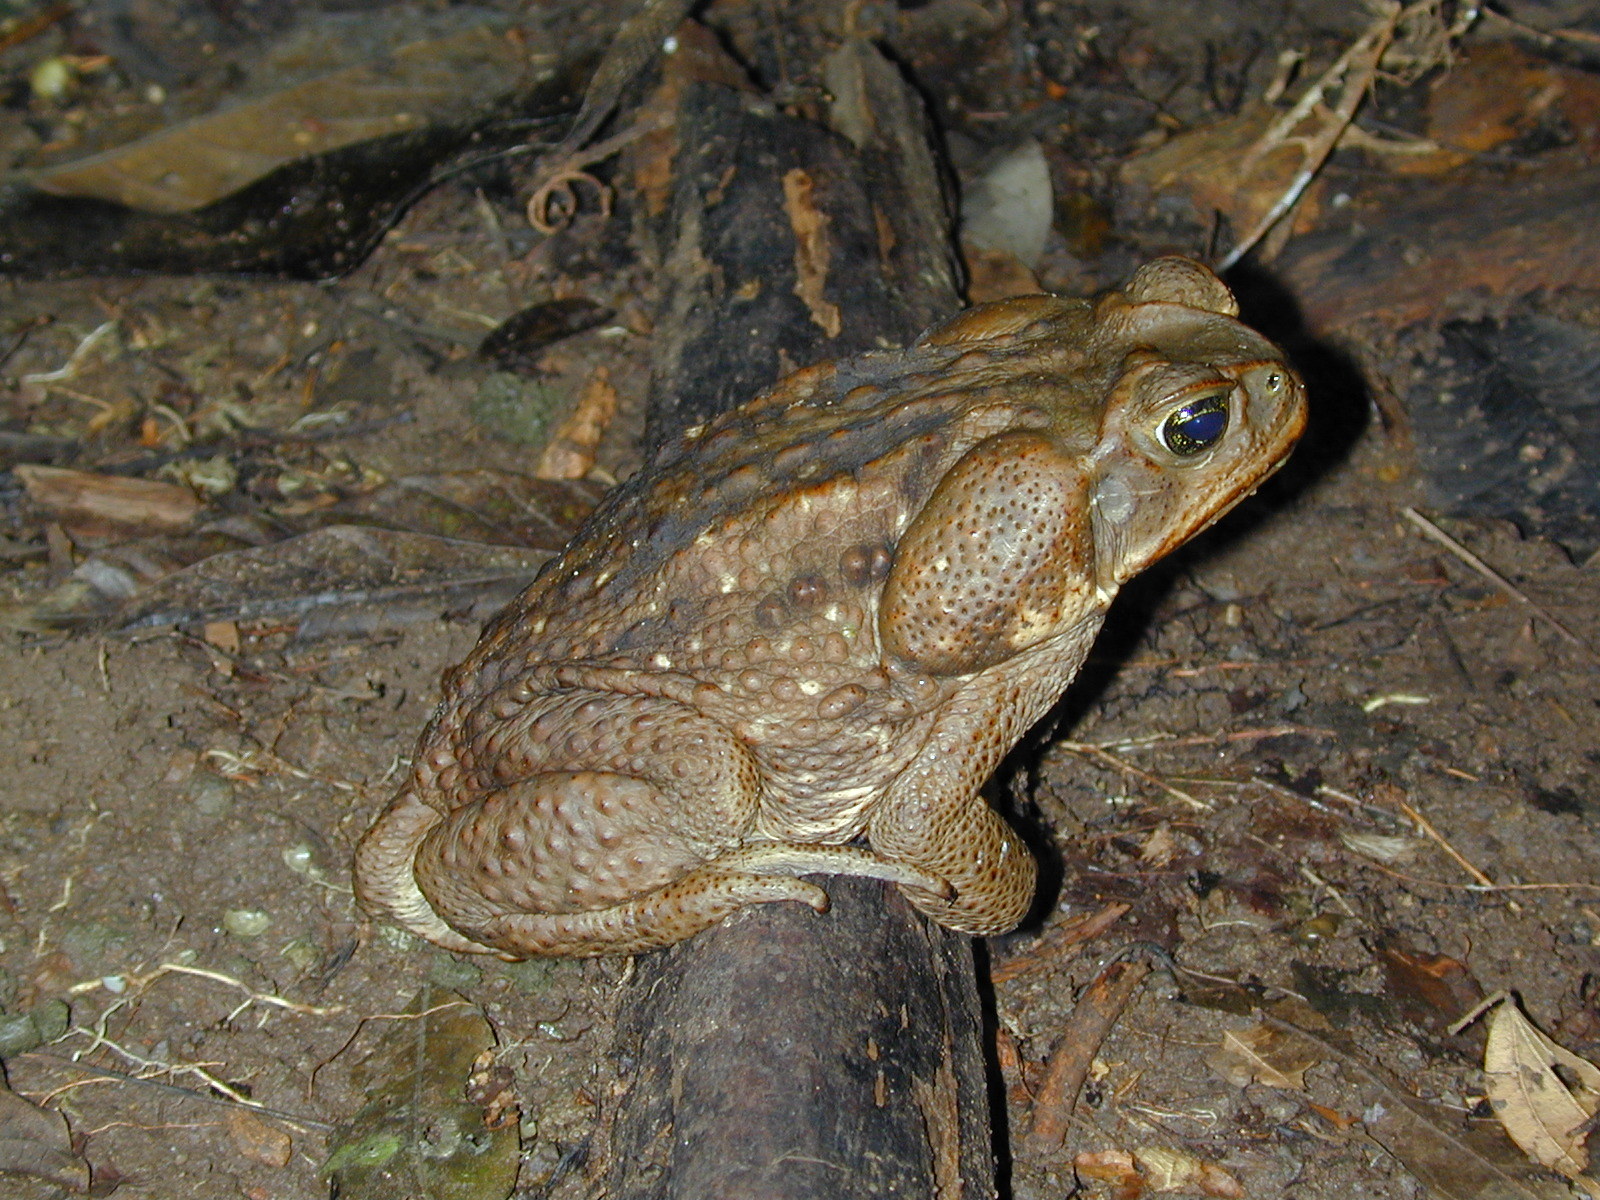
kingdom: Animalia
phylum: Chordata
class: Amphibia
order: Anura
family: Bufonidae
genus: Rhinella
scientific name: Rhinella horribilis
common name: Mesoamerican cane toad
